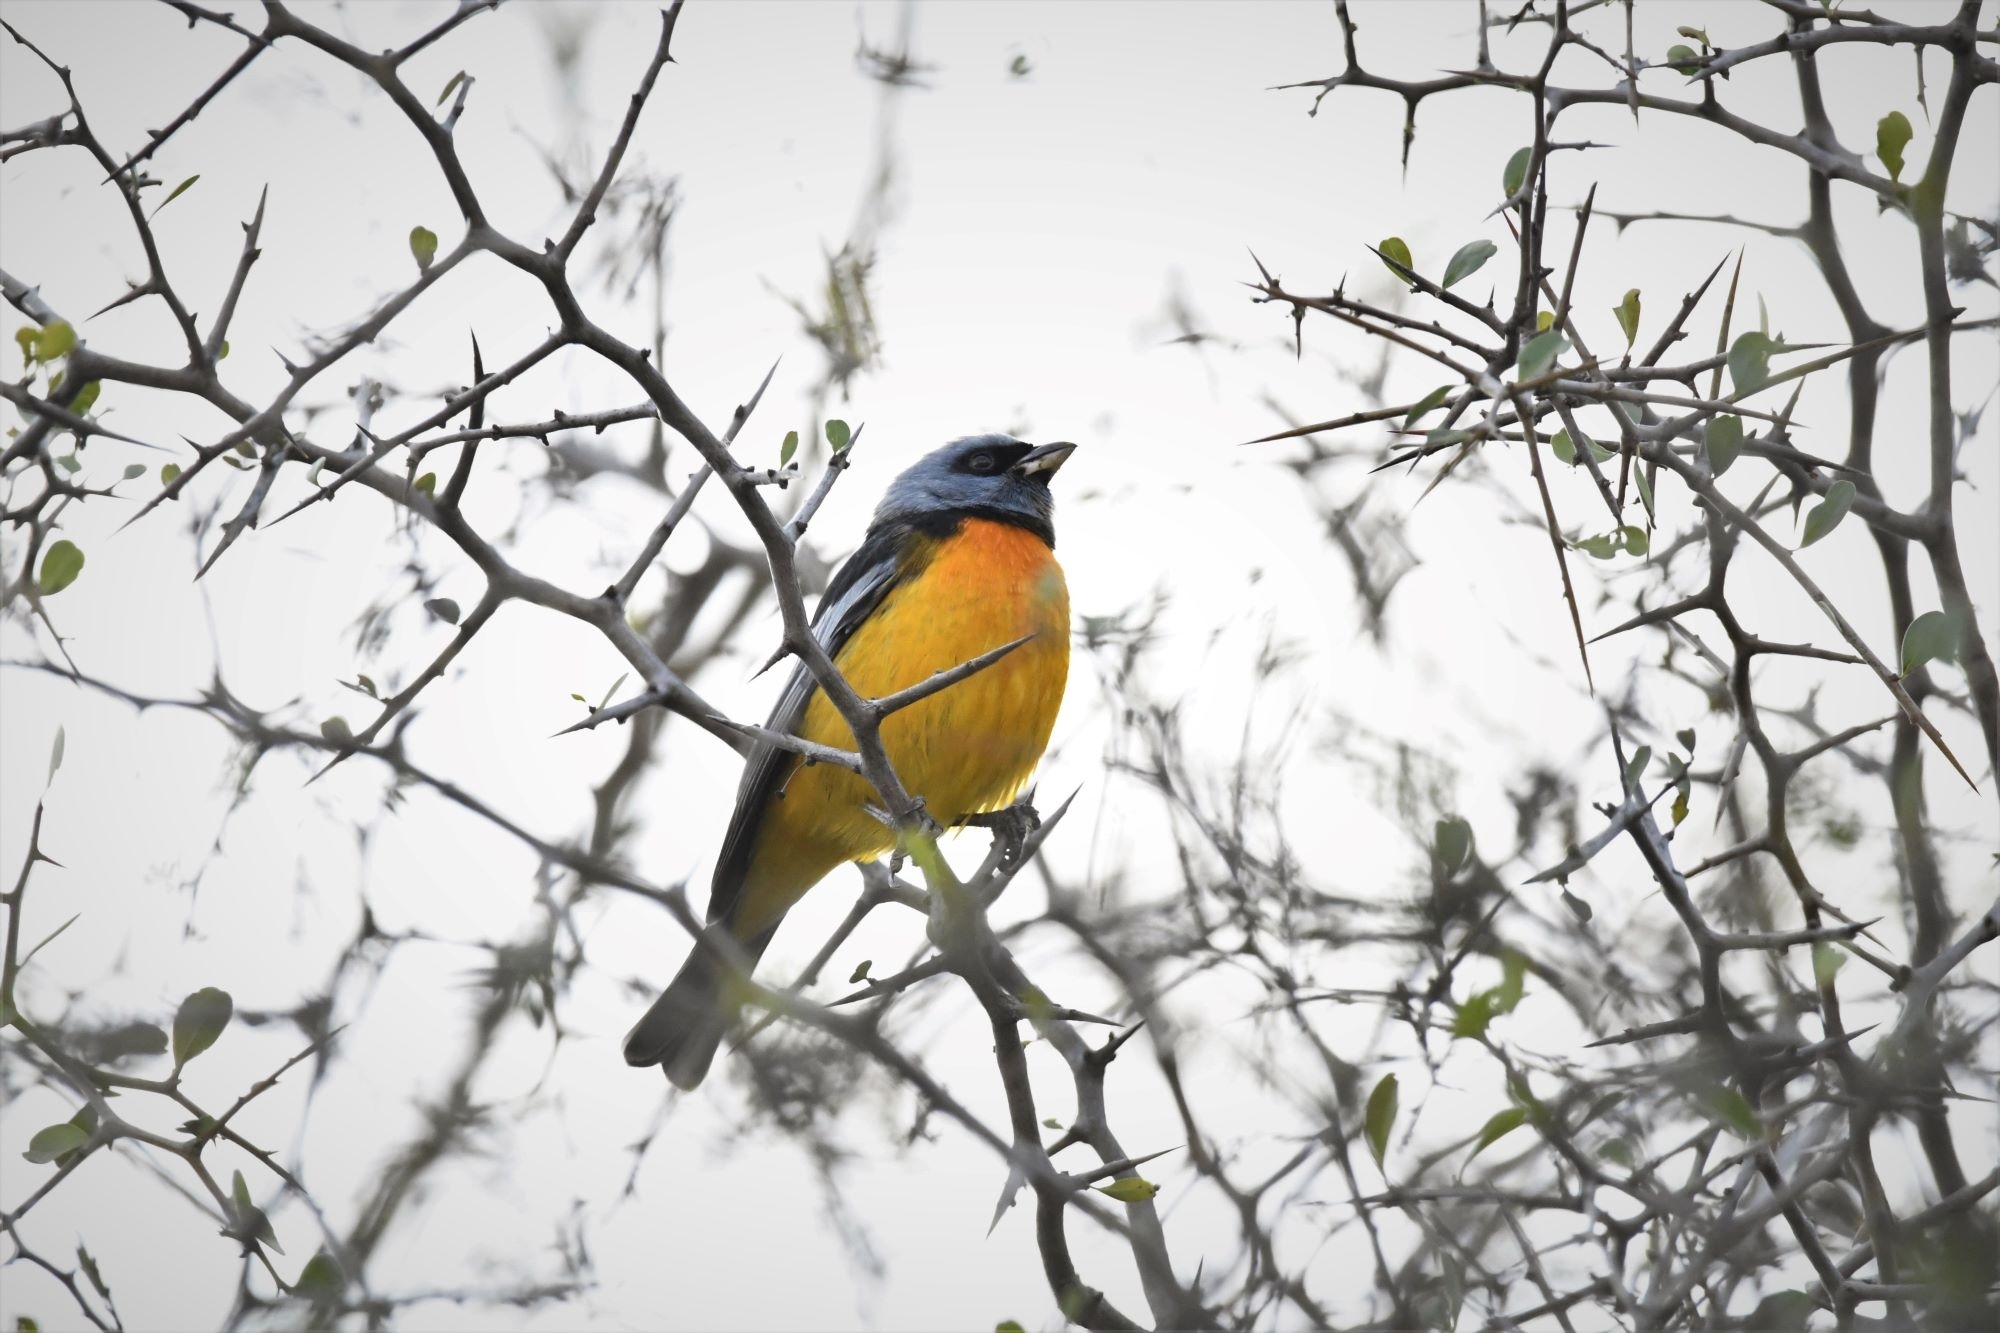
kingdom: Animalia
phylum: Chordata
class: Aves
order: Passeriformes
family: Thraupidae
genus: Rauenia
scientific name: Rauenia bonariensis
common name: Blue-and-yellow tanager
